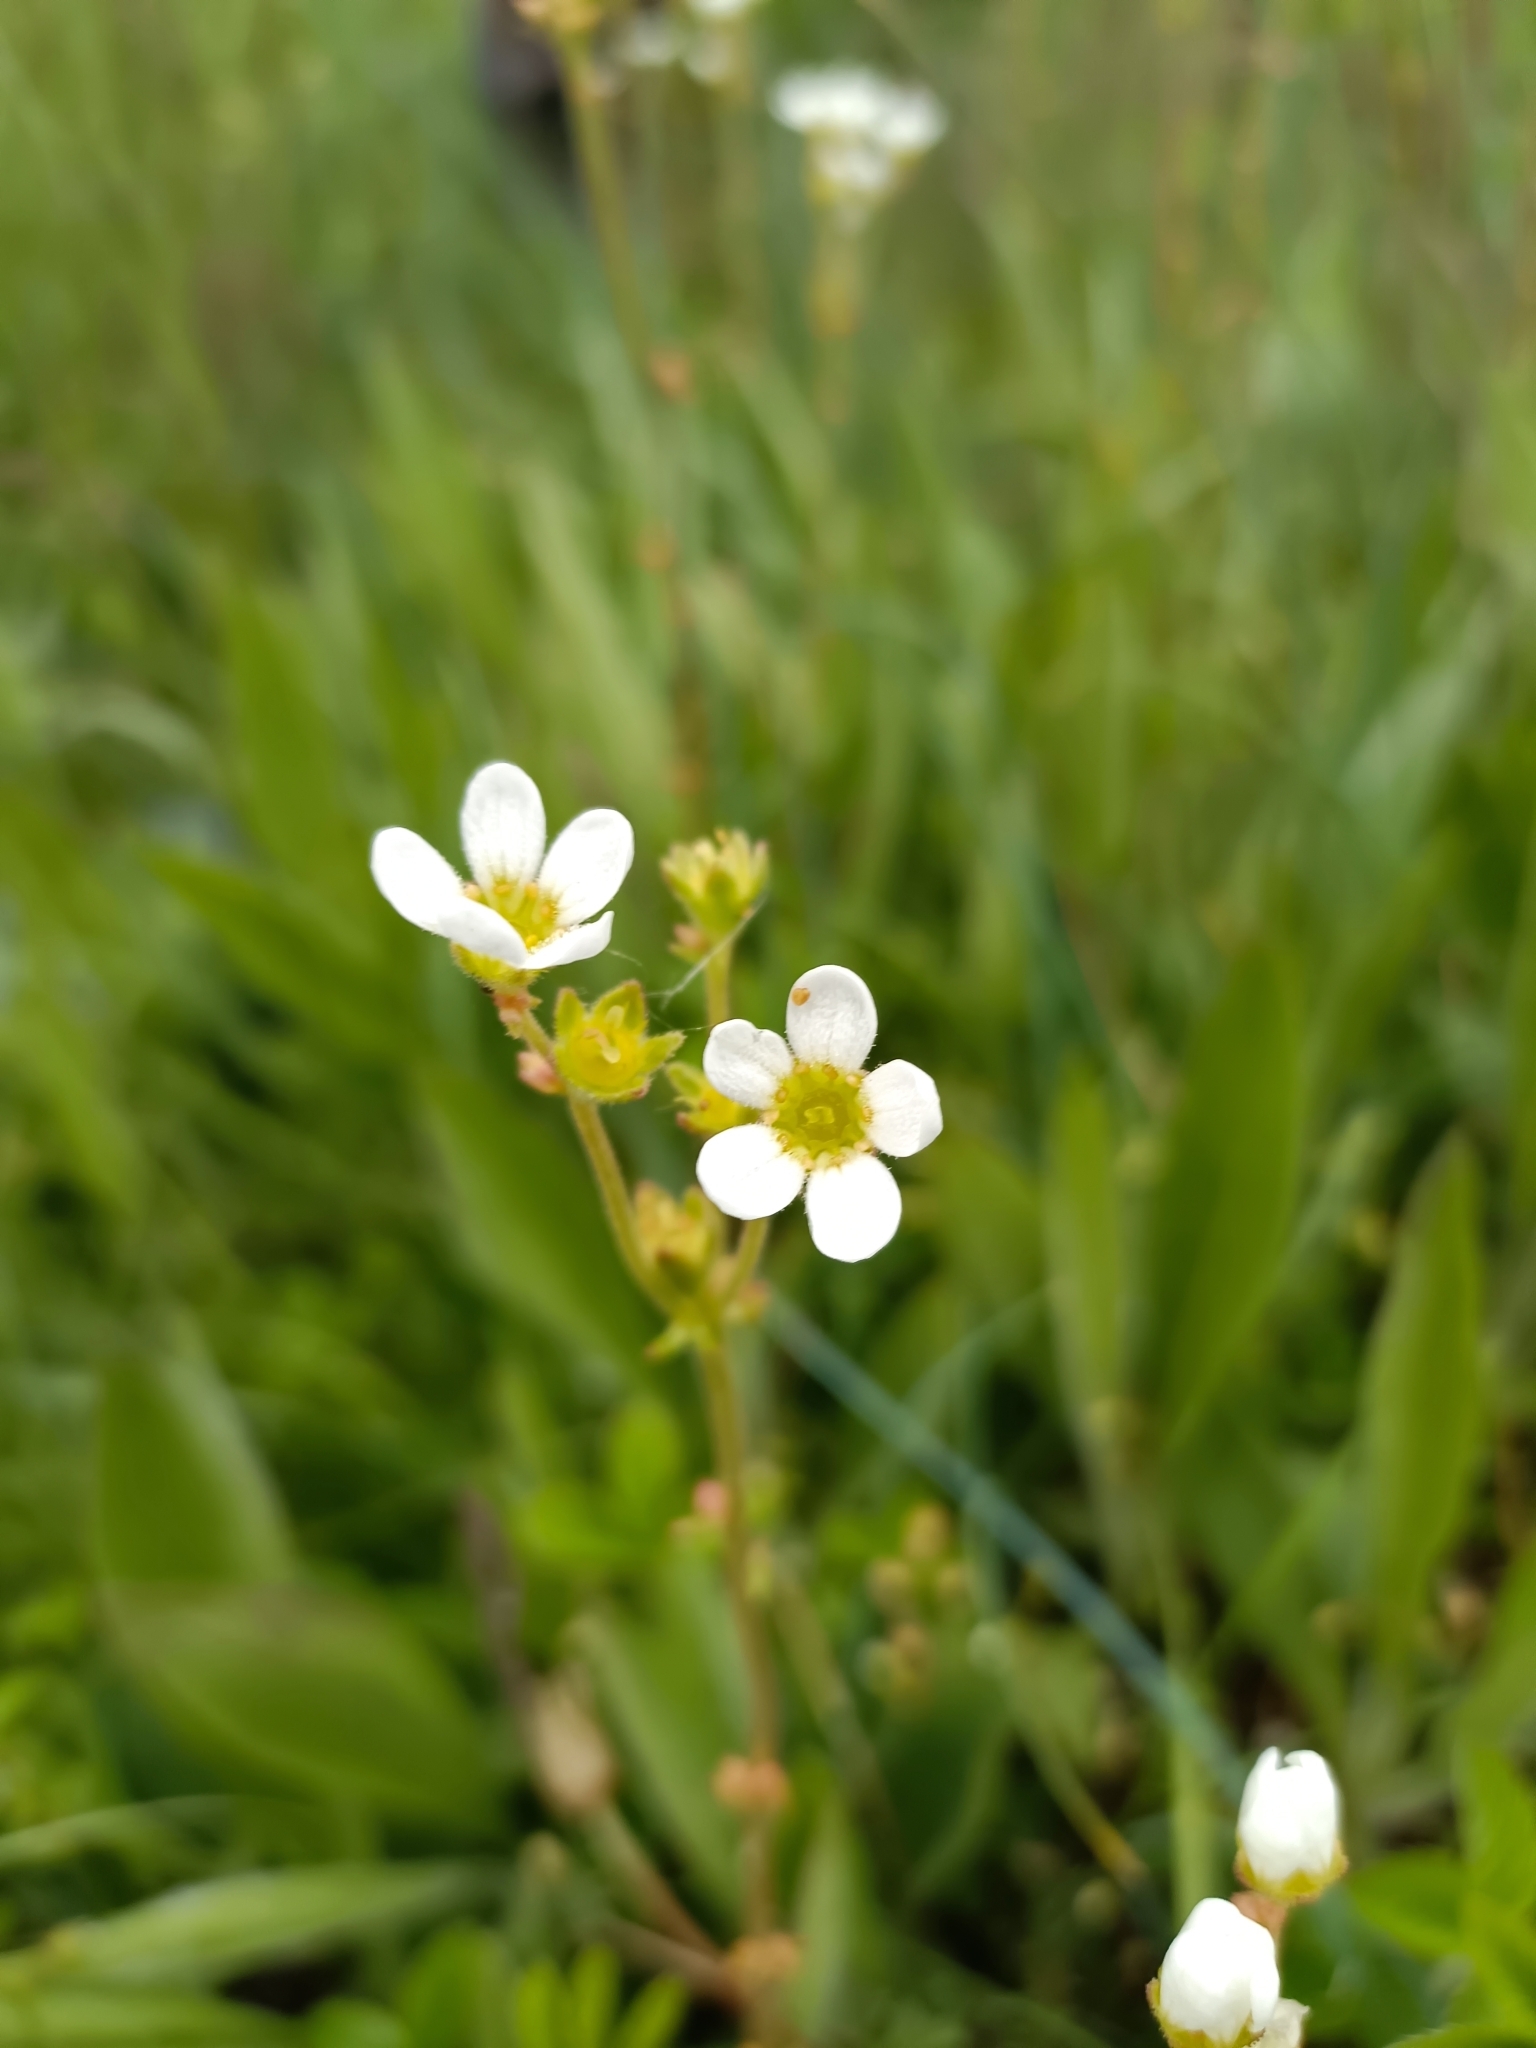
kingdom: Plantae
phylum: Tracheophyta
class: Magnoliopsida
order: Saxifragales
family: Saxifragaceae
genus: Saxifraga
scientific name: Saxifraga bulbifera
